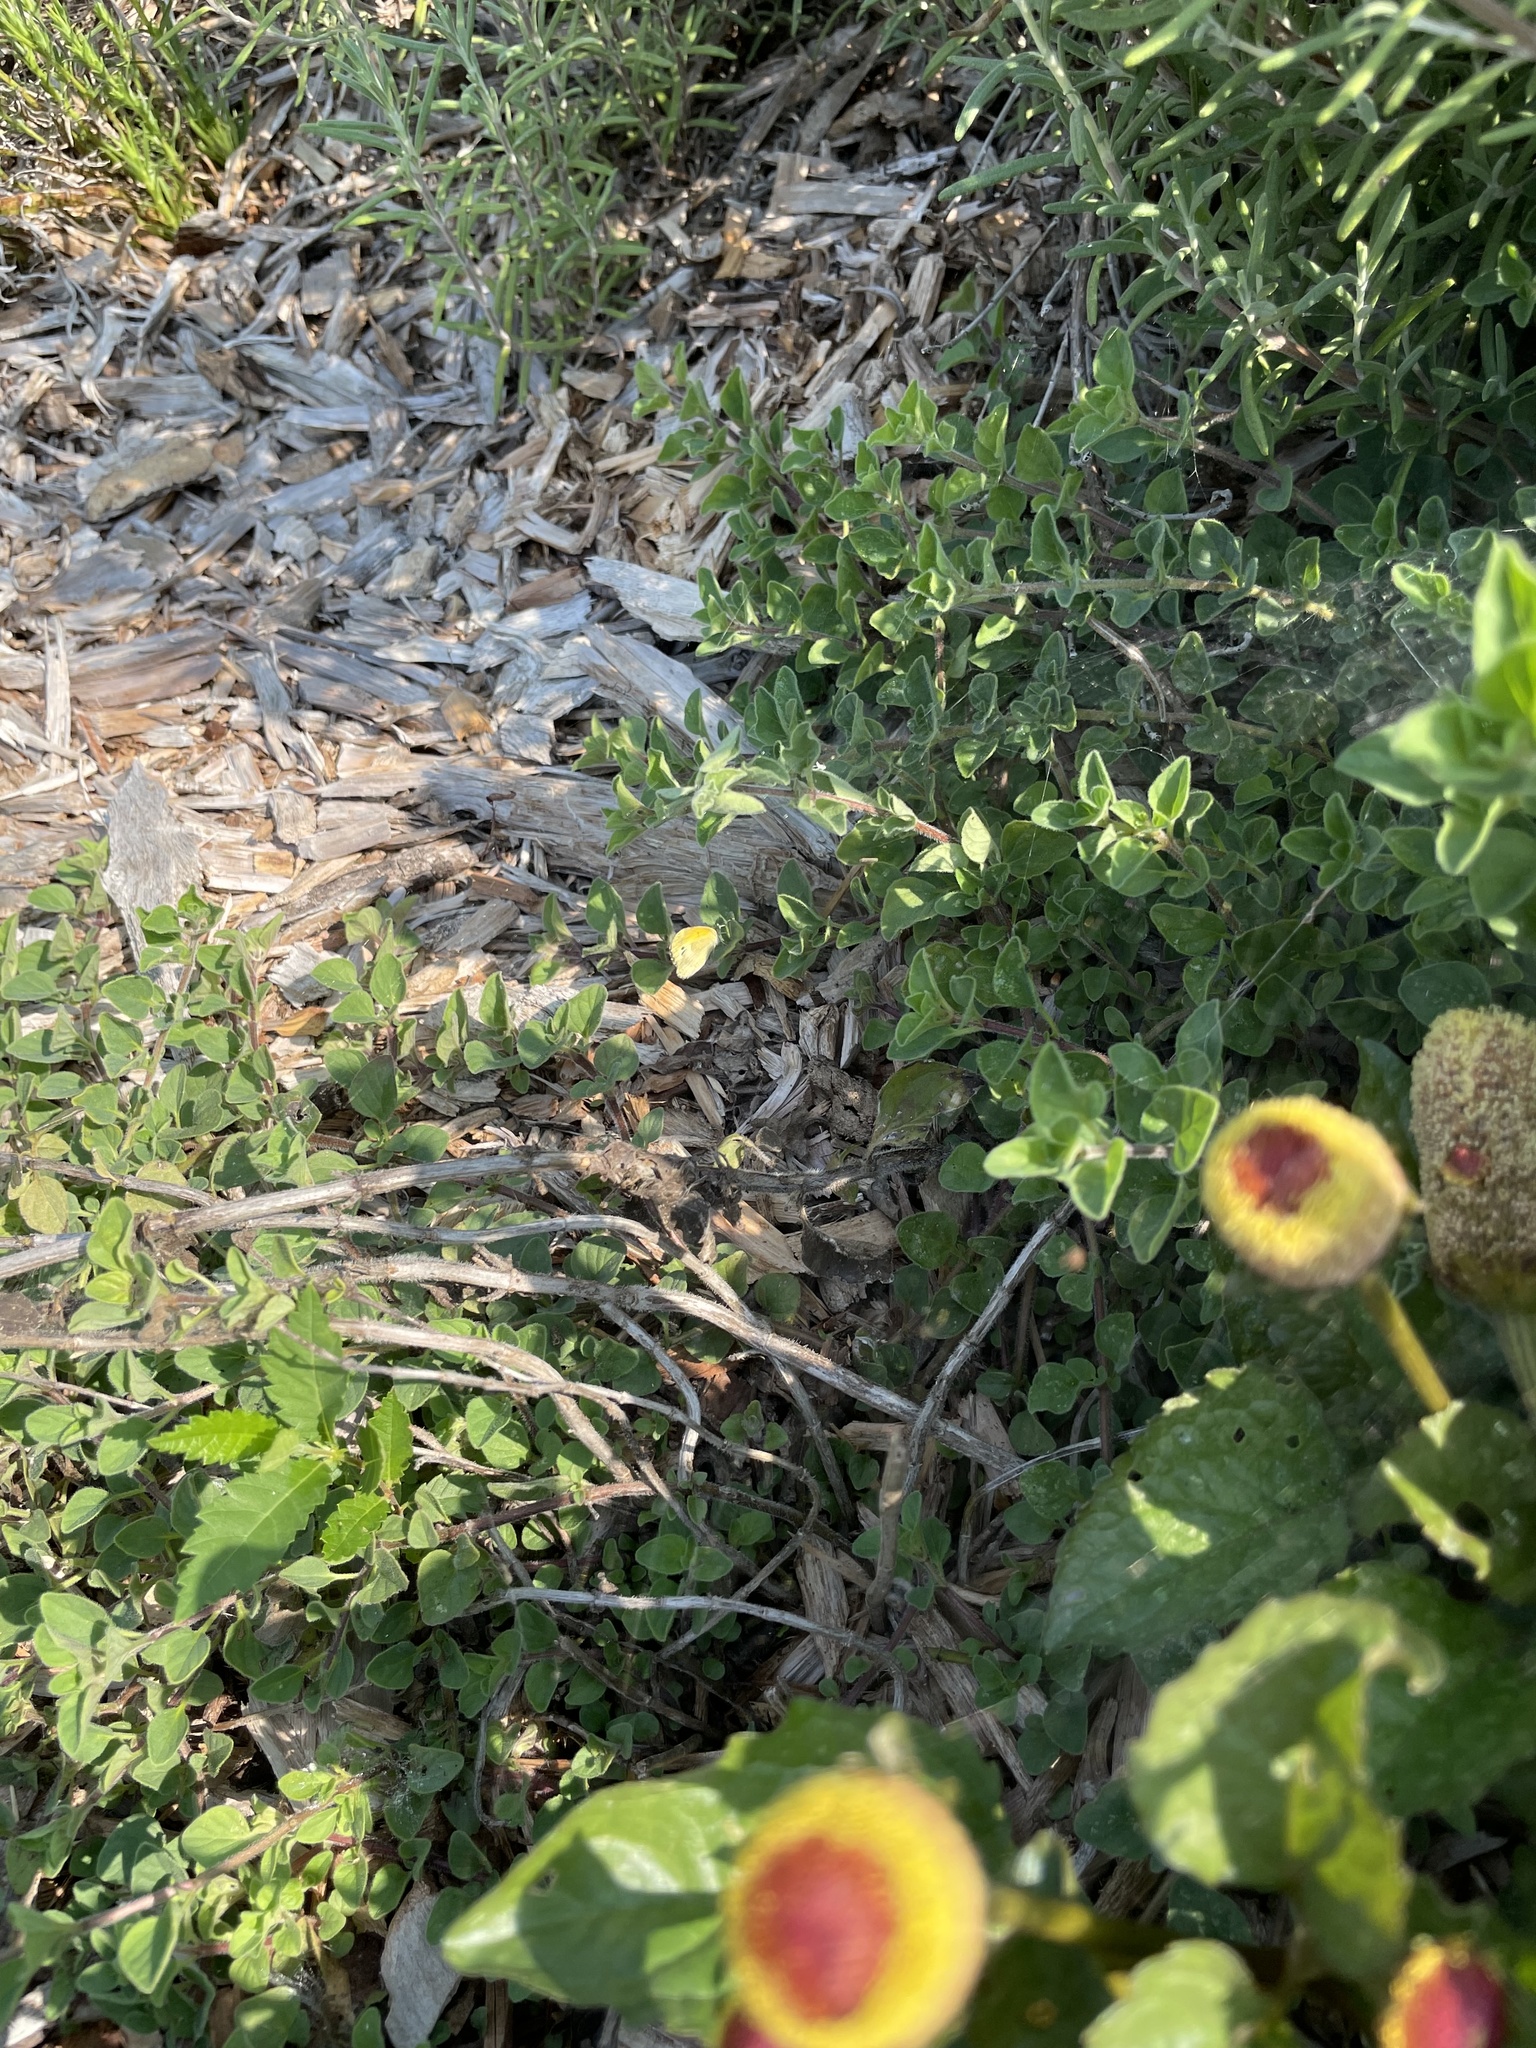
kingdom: Animalia
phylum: Arthropoda
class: Insecta
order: Lepidoptera
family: Pieridae
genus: Nathalis
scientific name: Nathalis iole
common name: Dainty sulphur
